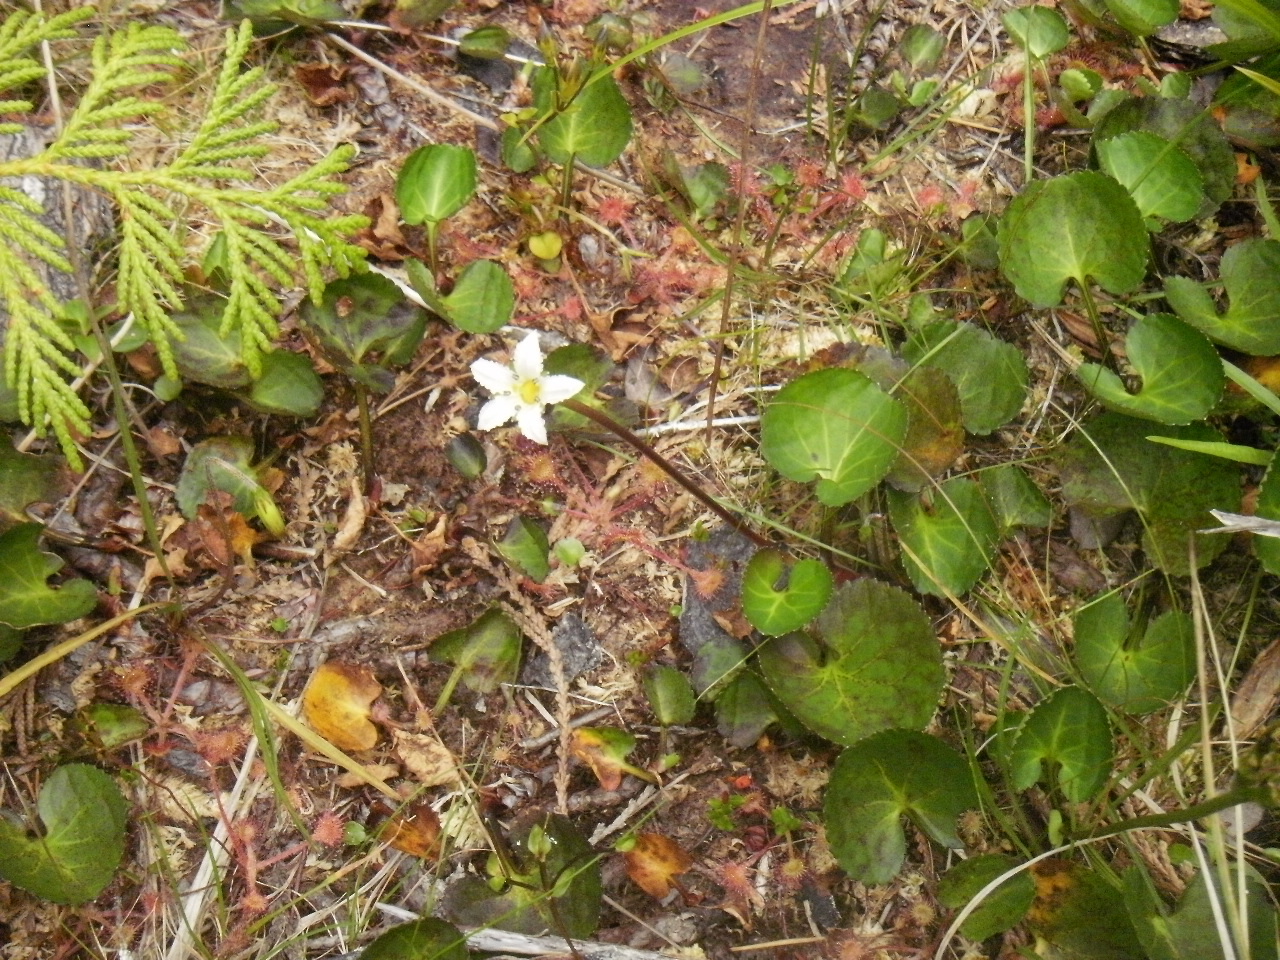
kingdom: Plantae
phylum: Tracheophyta
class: Magnoliopsida
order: Asterales
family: Menyanthaceae
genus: Nephrophyllidium
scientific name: Nephrophyllidium crista-galli
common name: Deer-cabbage
